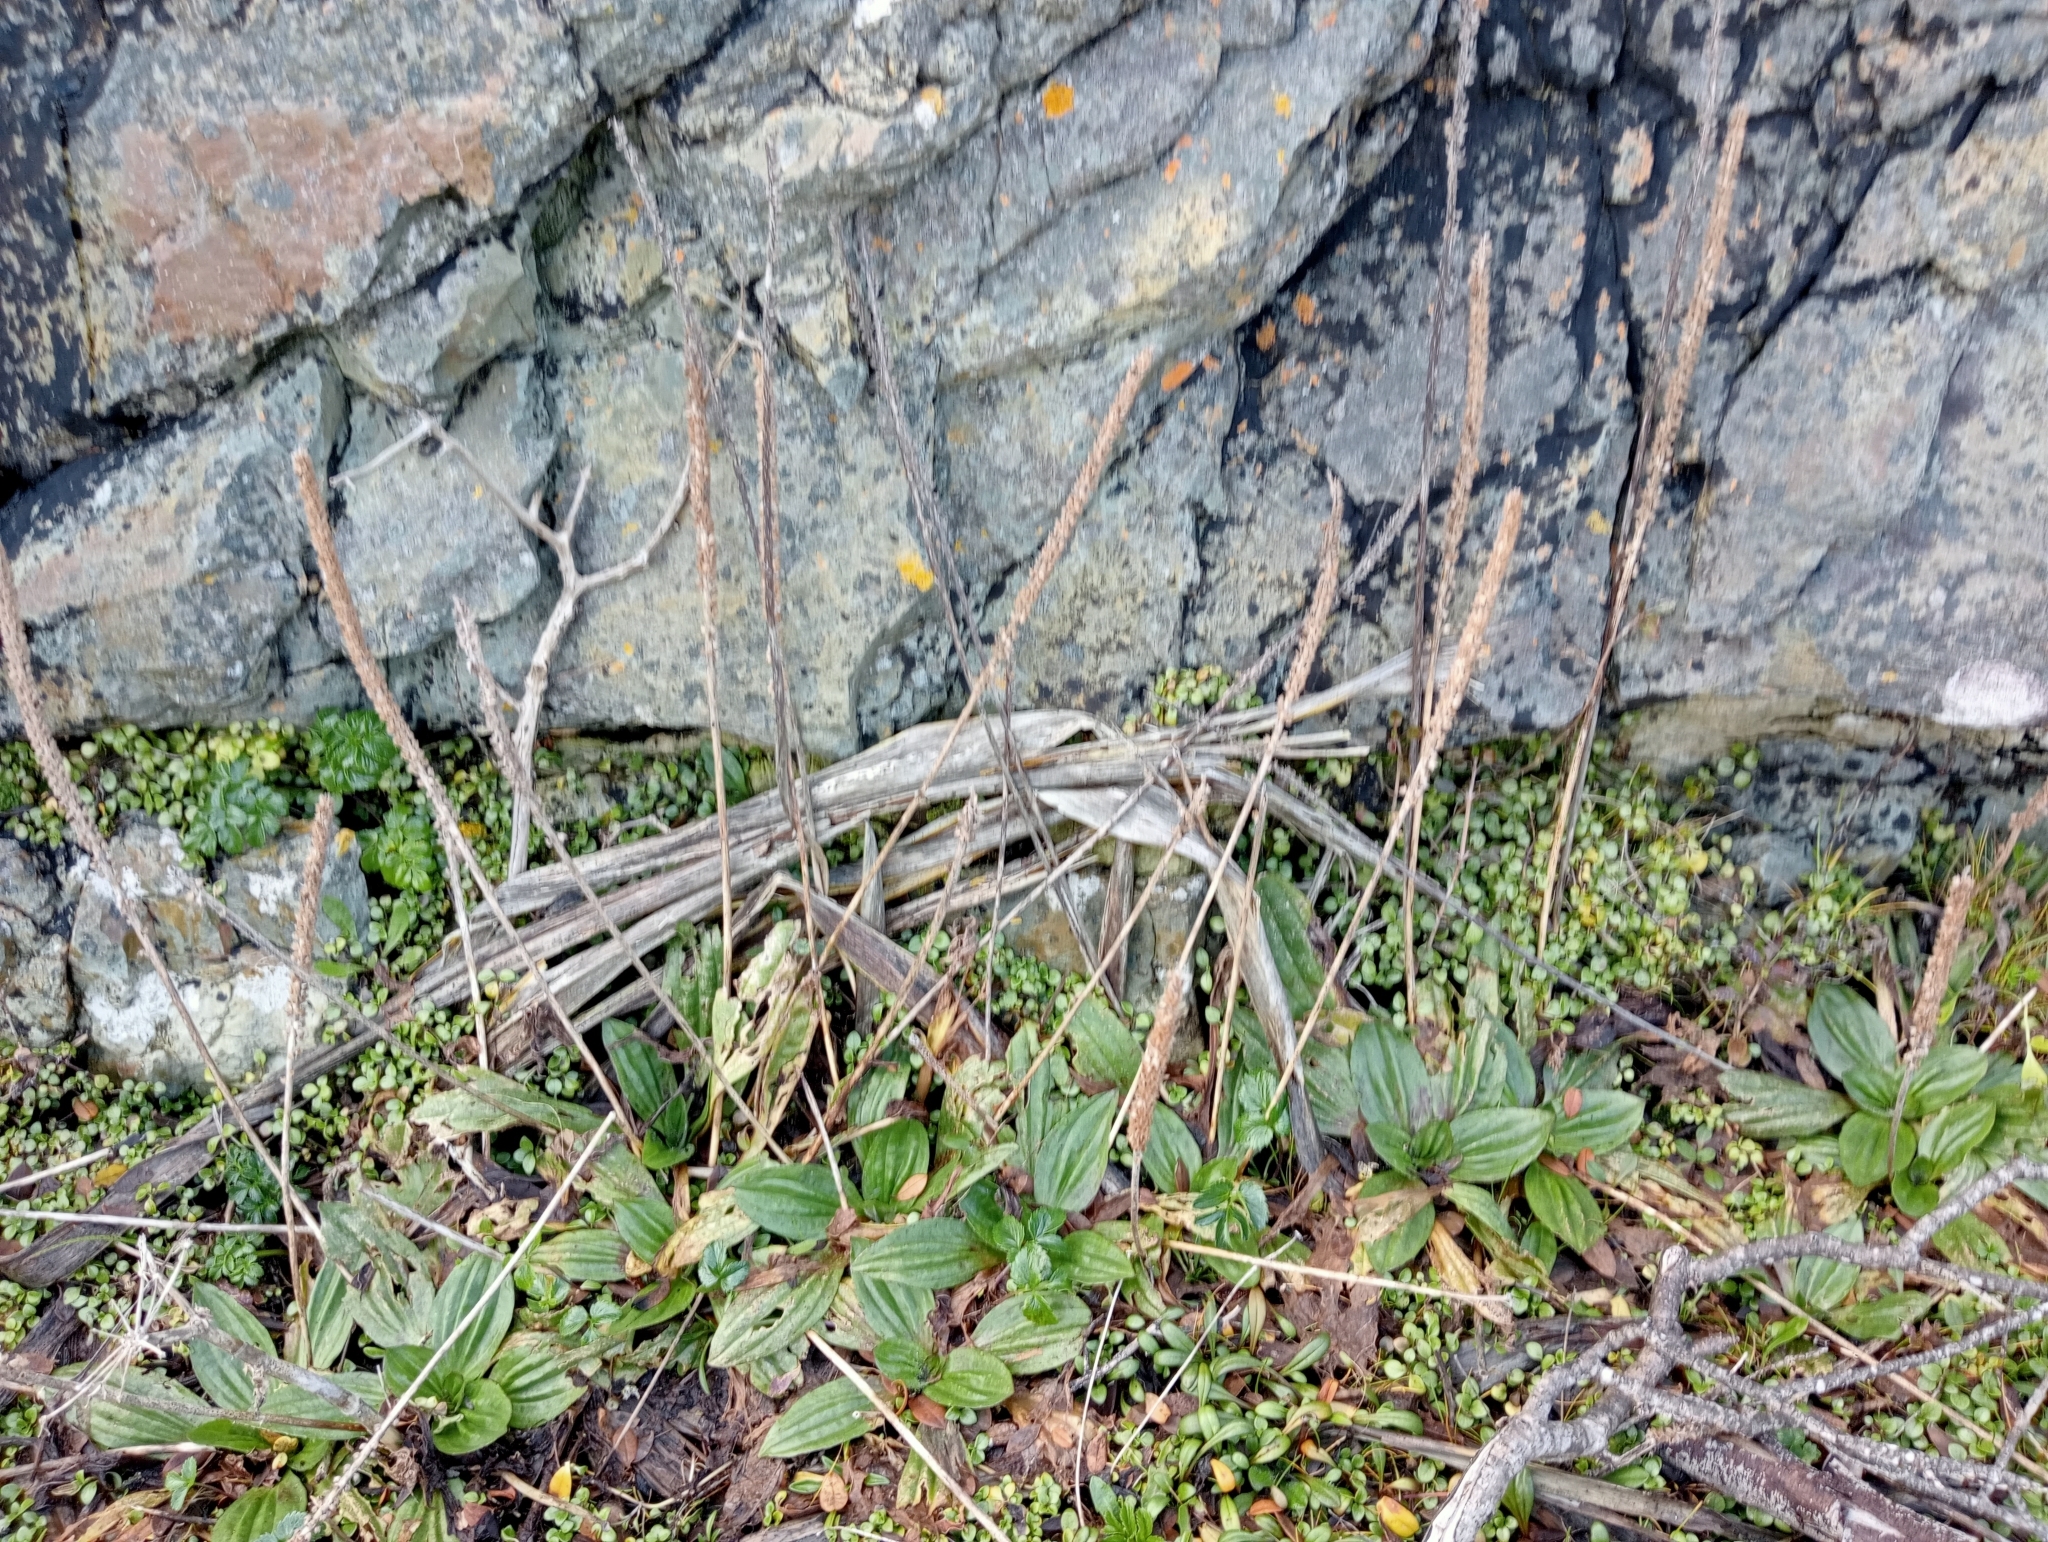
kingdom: Plantae
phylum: Tracheophyta
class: Magnoliopsida
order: Lamiales
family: Plantaginaceae
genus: Plantago
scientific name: Plantago australis
